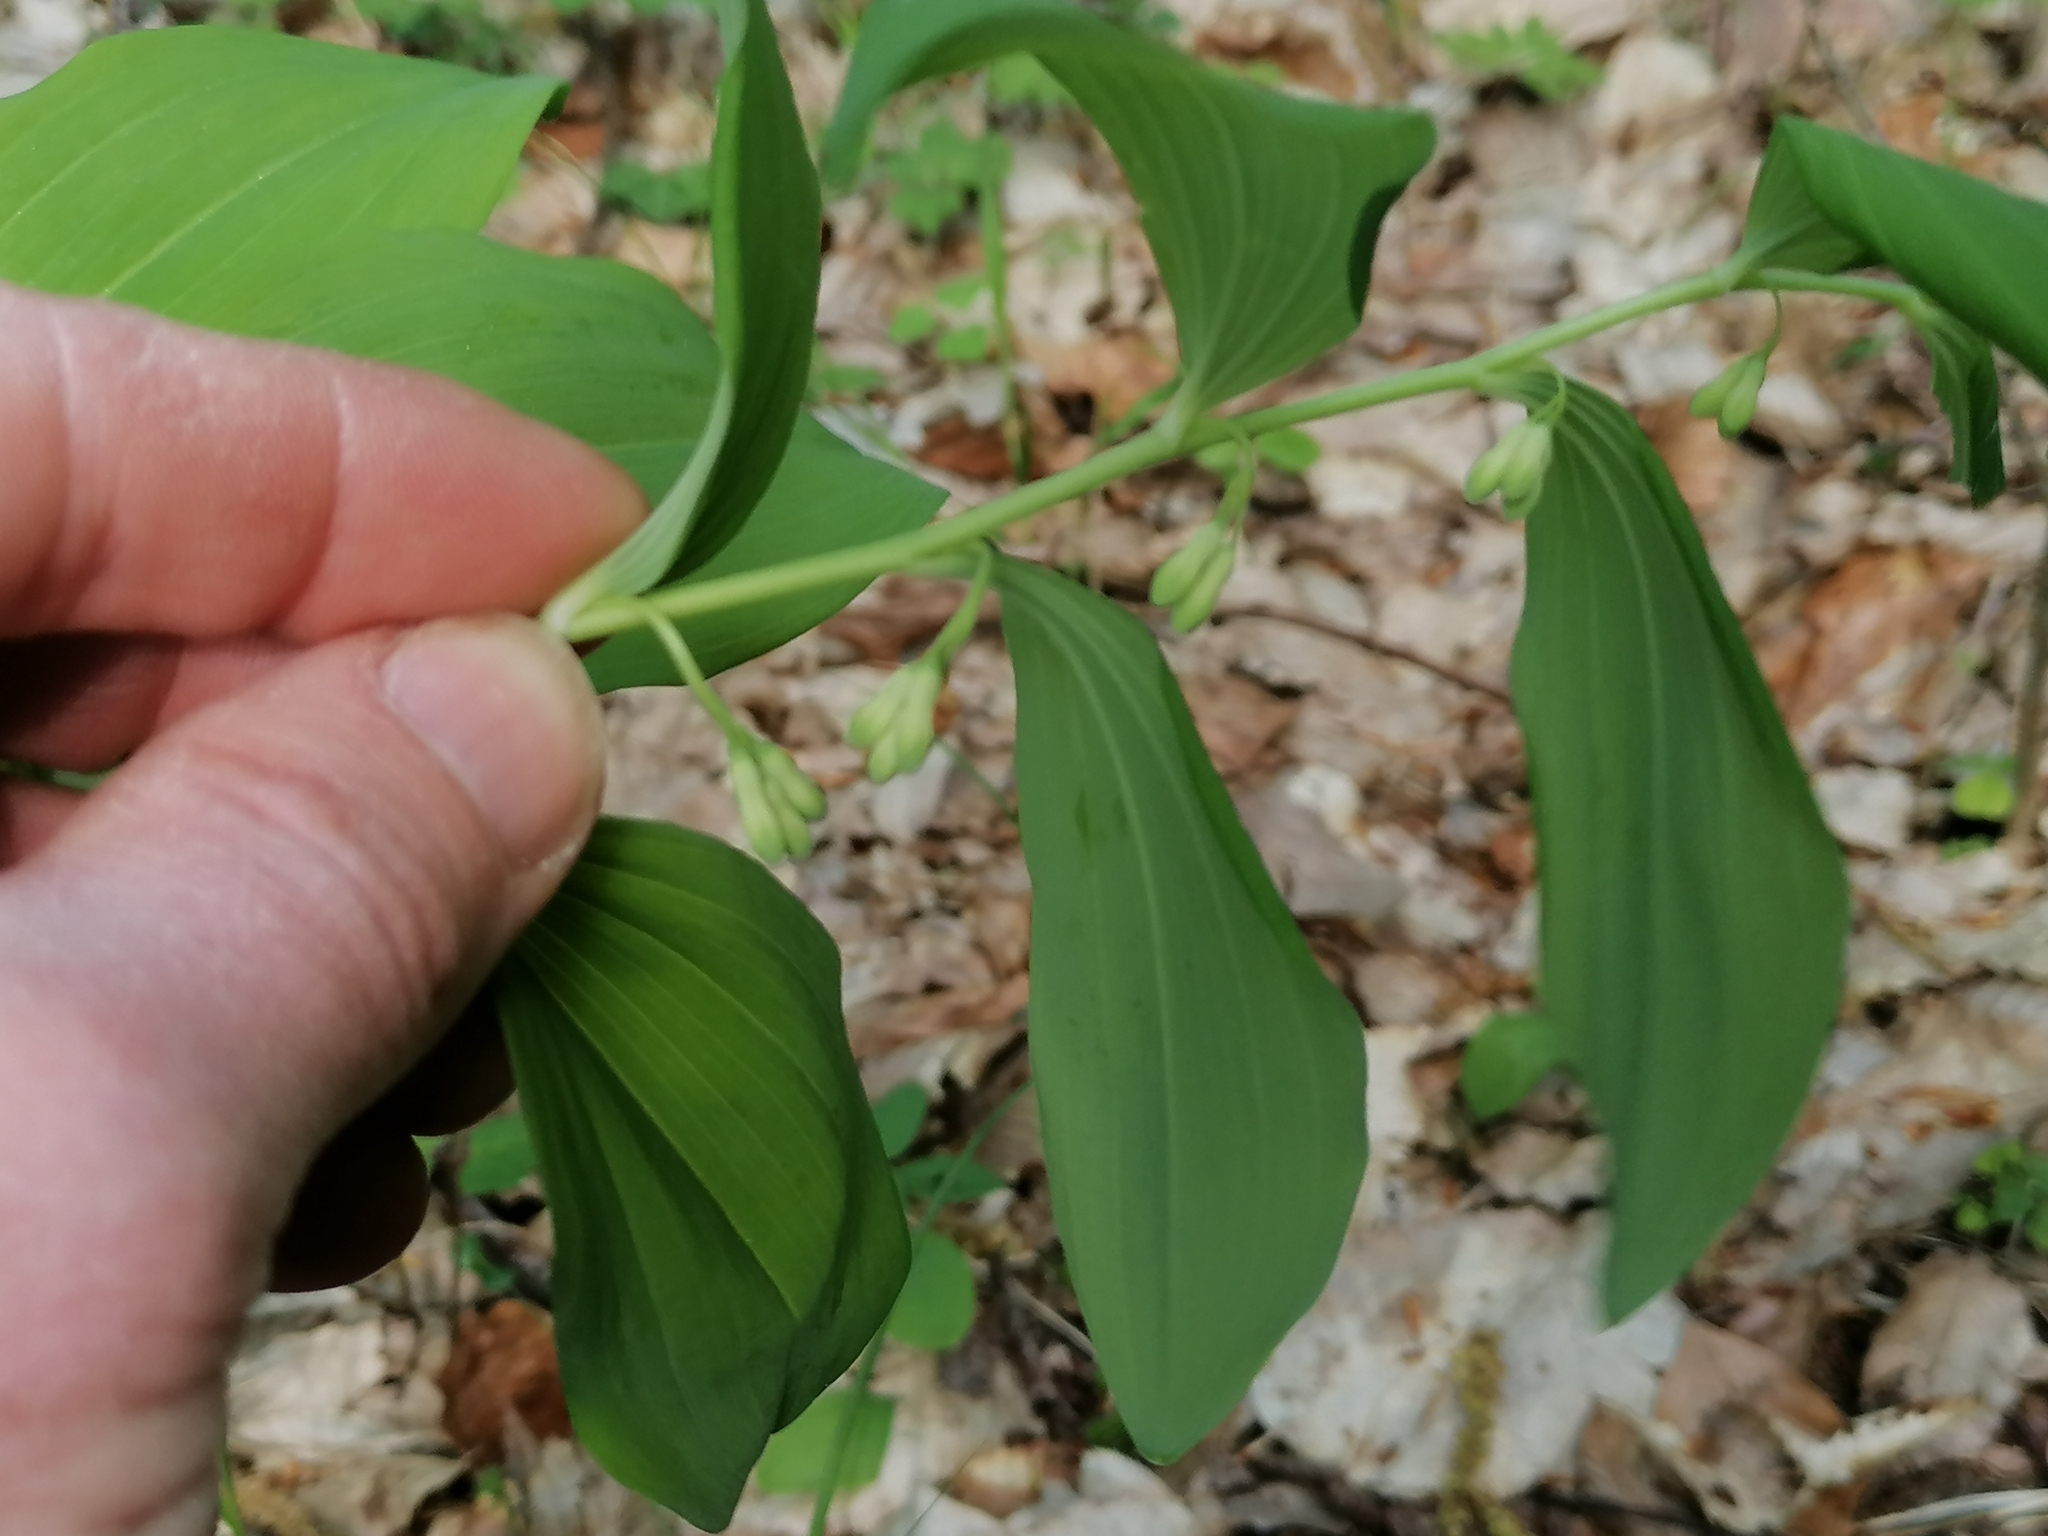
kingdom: Plantae
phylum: Tracheophyta
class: Liliopsida
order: Asparagales
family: Asparagaceae
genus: Polygonatum
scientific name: Polygonatum multiflorum
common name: Solomon's-seal
